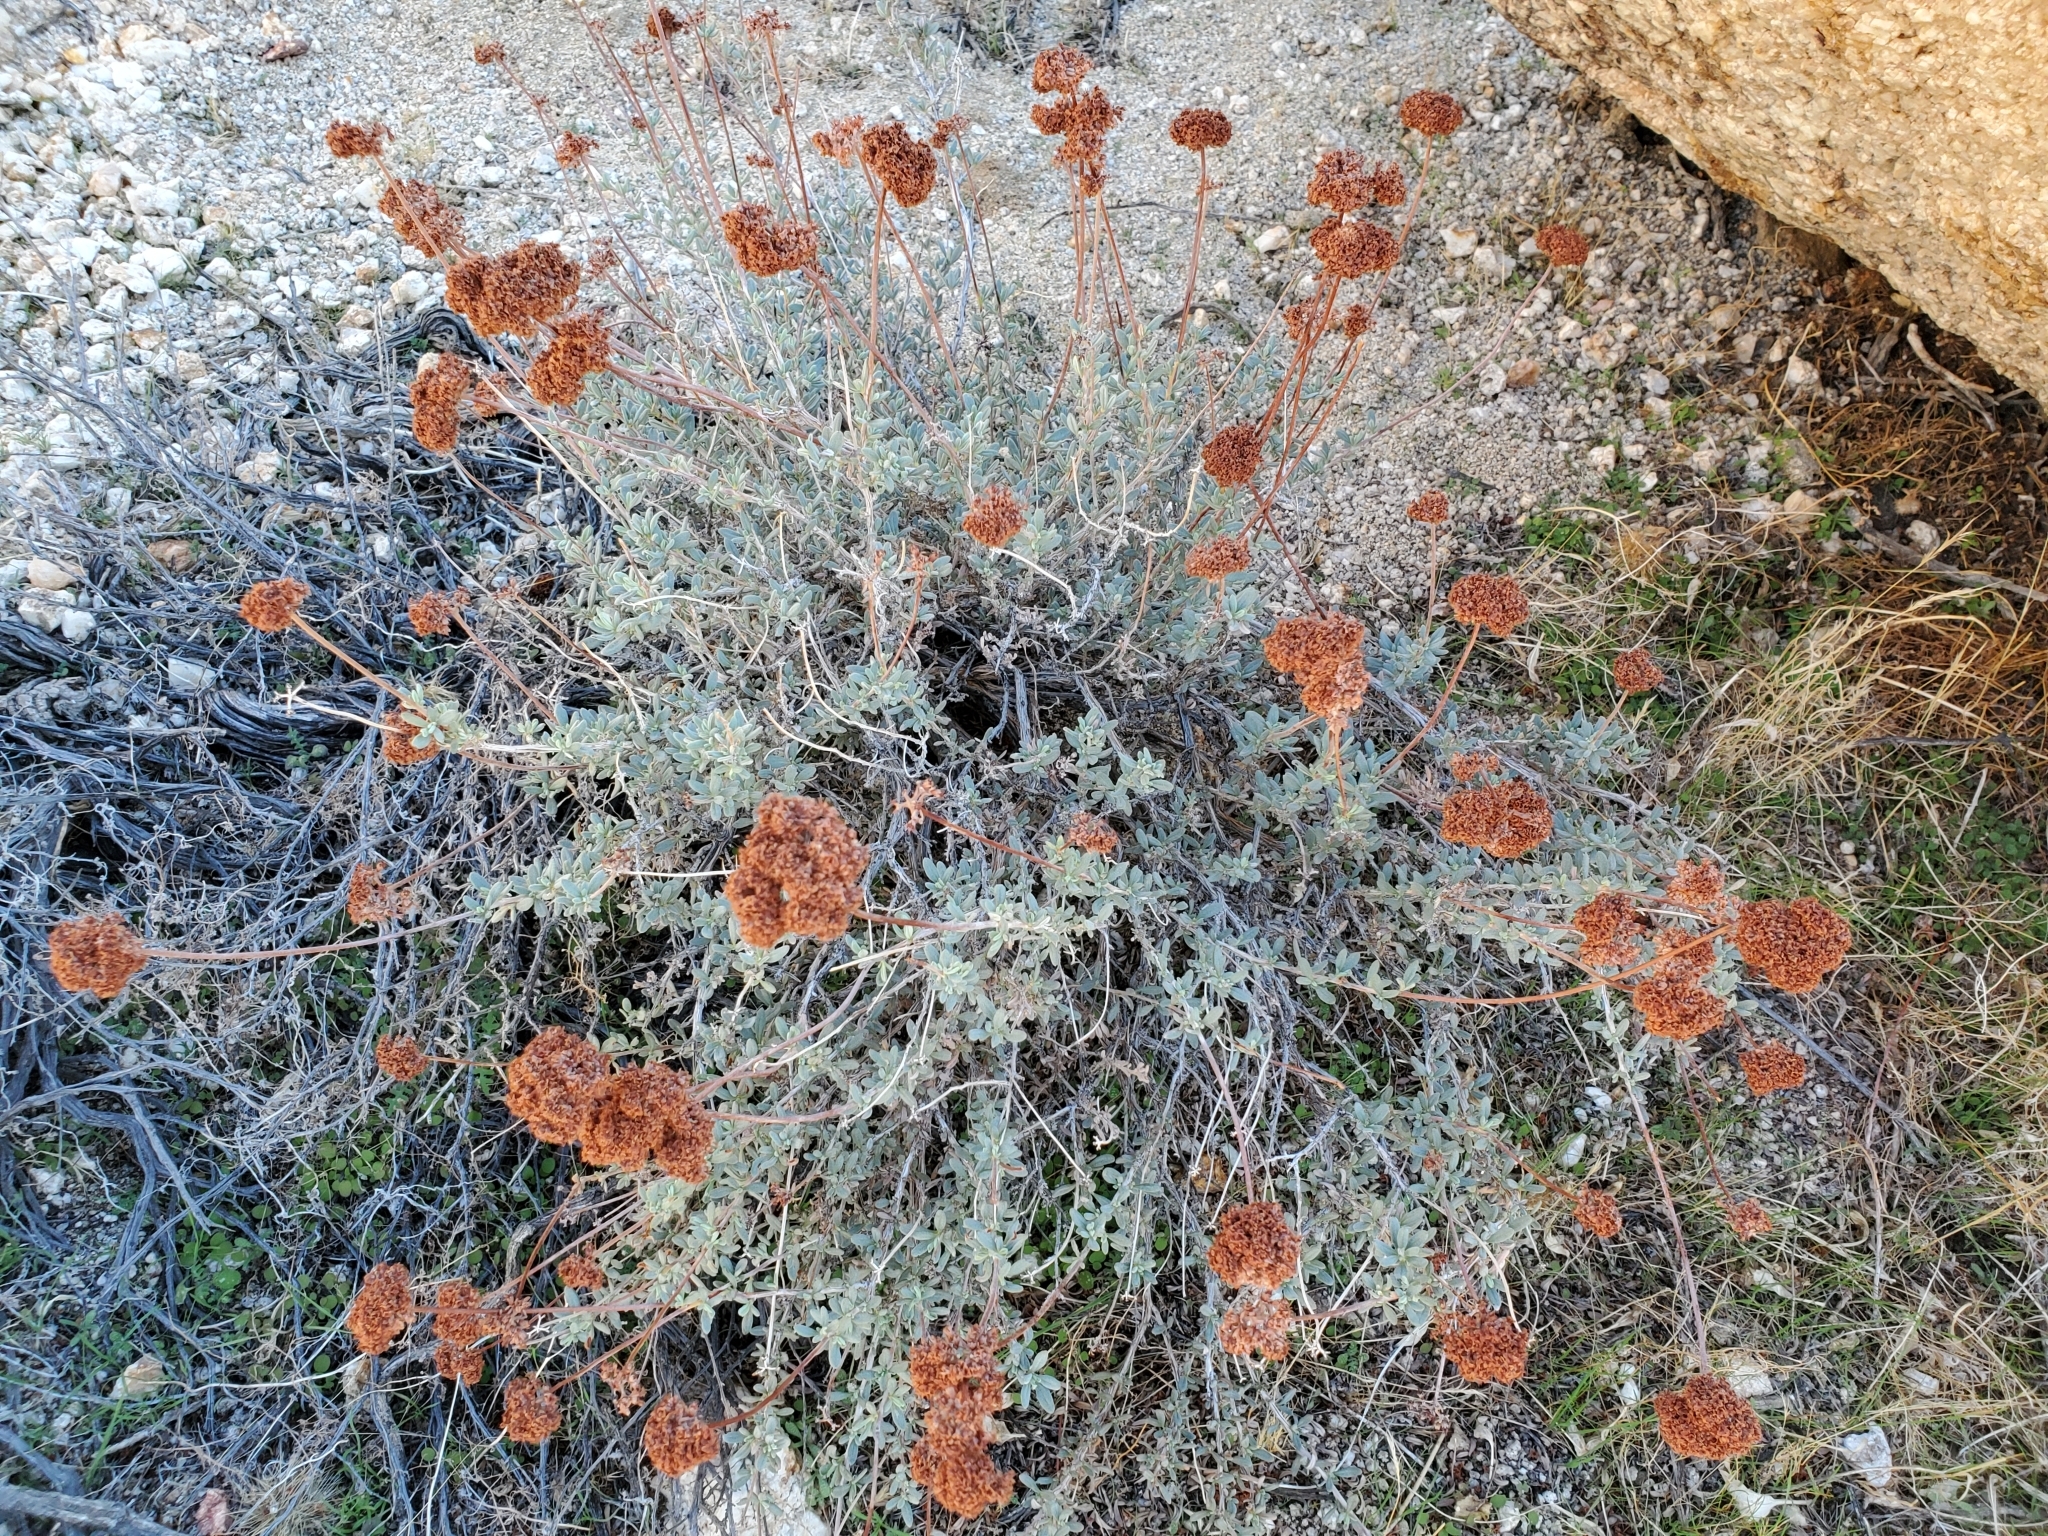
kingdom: Plantae
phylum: Tracheophyta
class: Magnoliopsida
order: Caryophyllales
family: Polygonaceae
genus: Eriogonum
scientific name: Eriogonum fasciculatum
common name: California wild buckwheat
